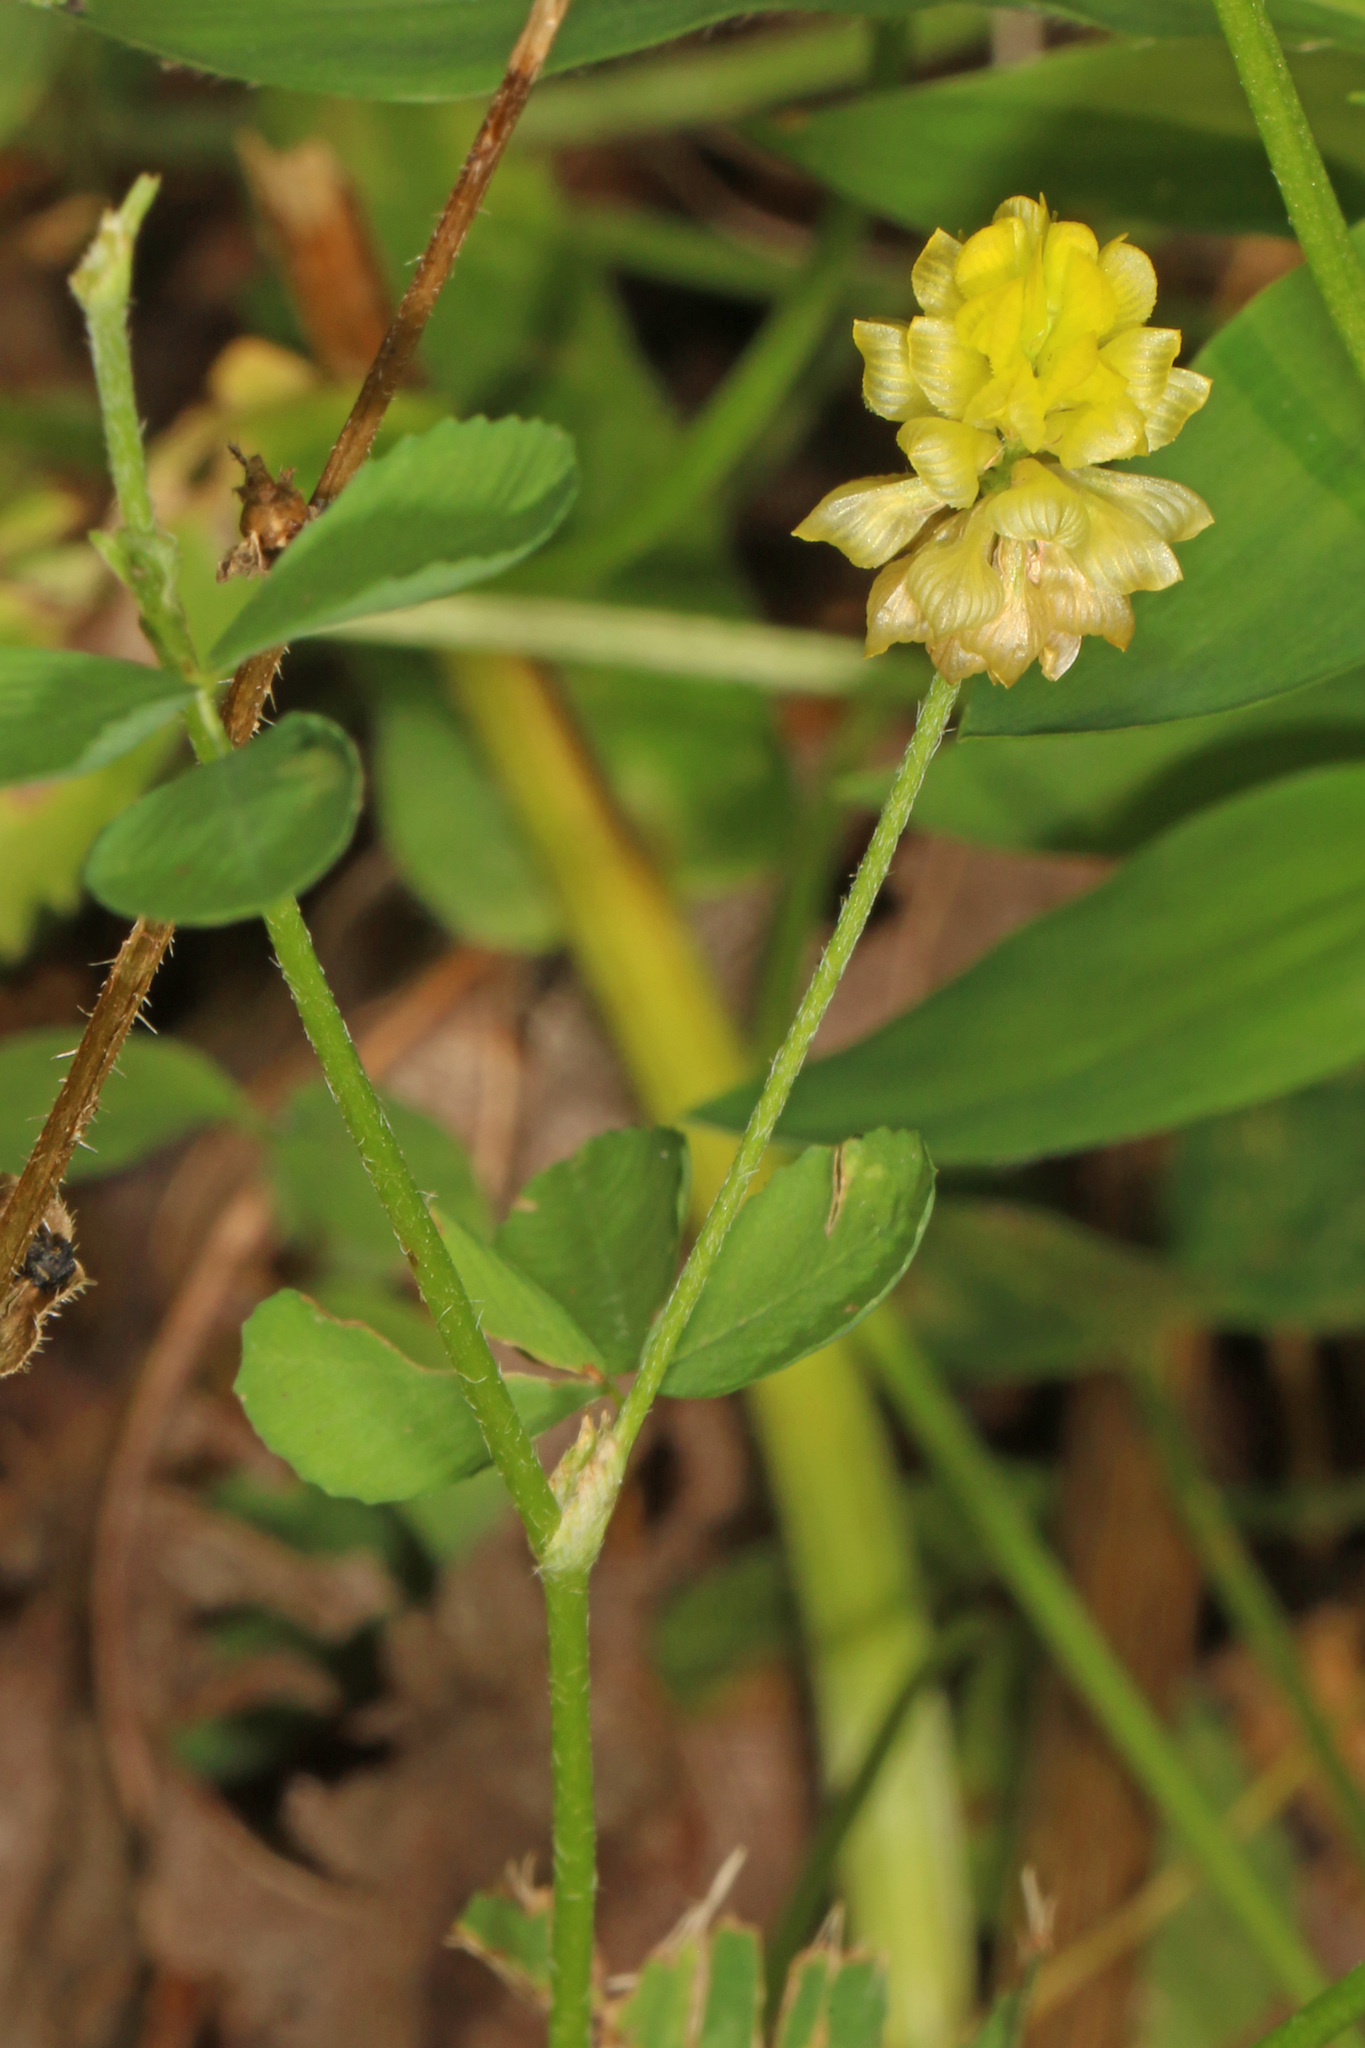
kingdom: Plantae
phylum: Tracheophyta
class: Magnoliopsida
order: Fabales
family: Fabaceae
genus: Trifolium
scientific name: Trifolium campestre
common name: Field clover
